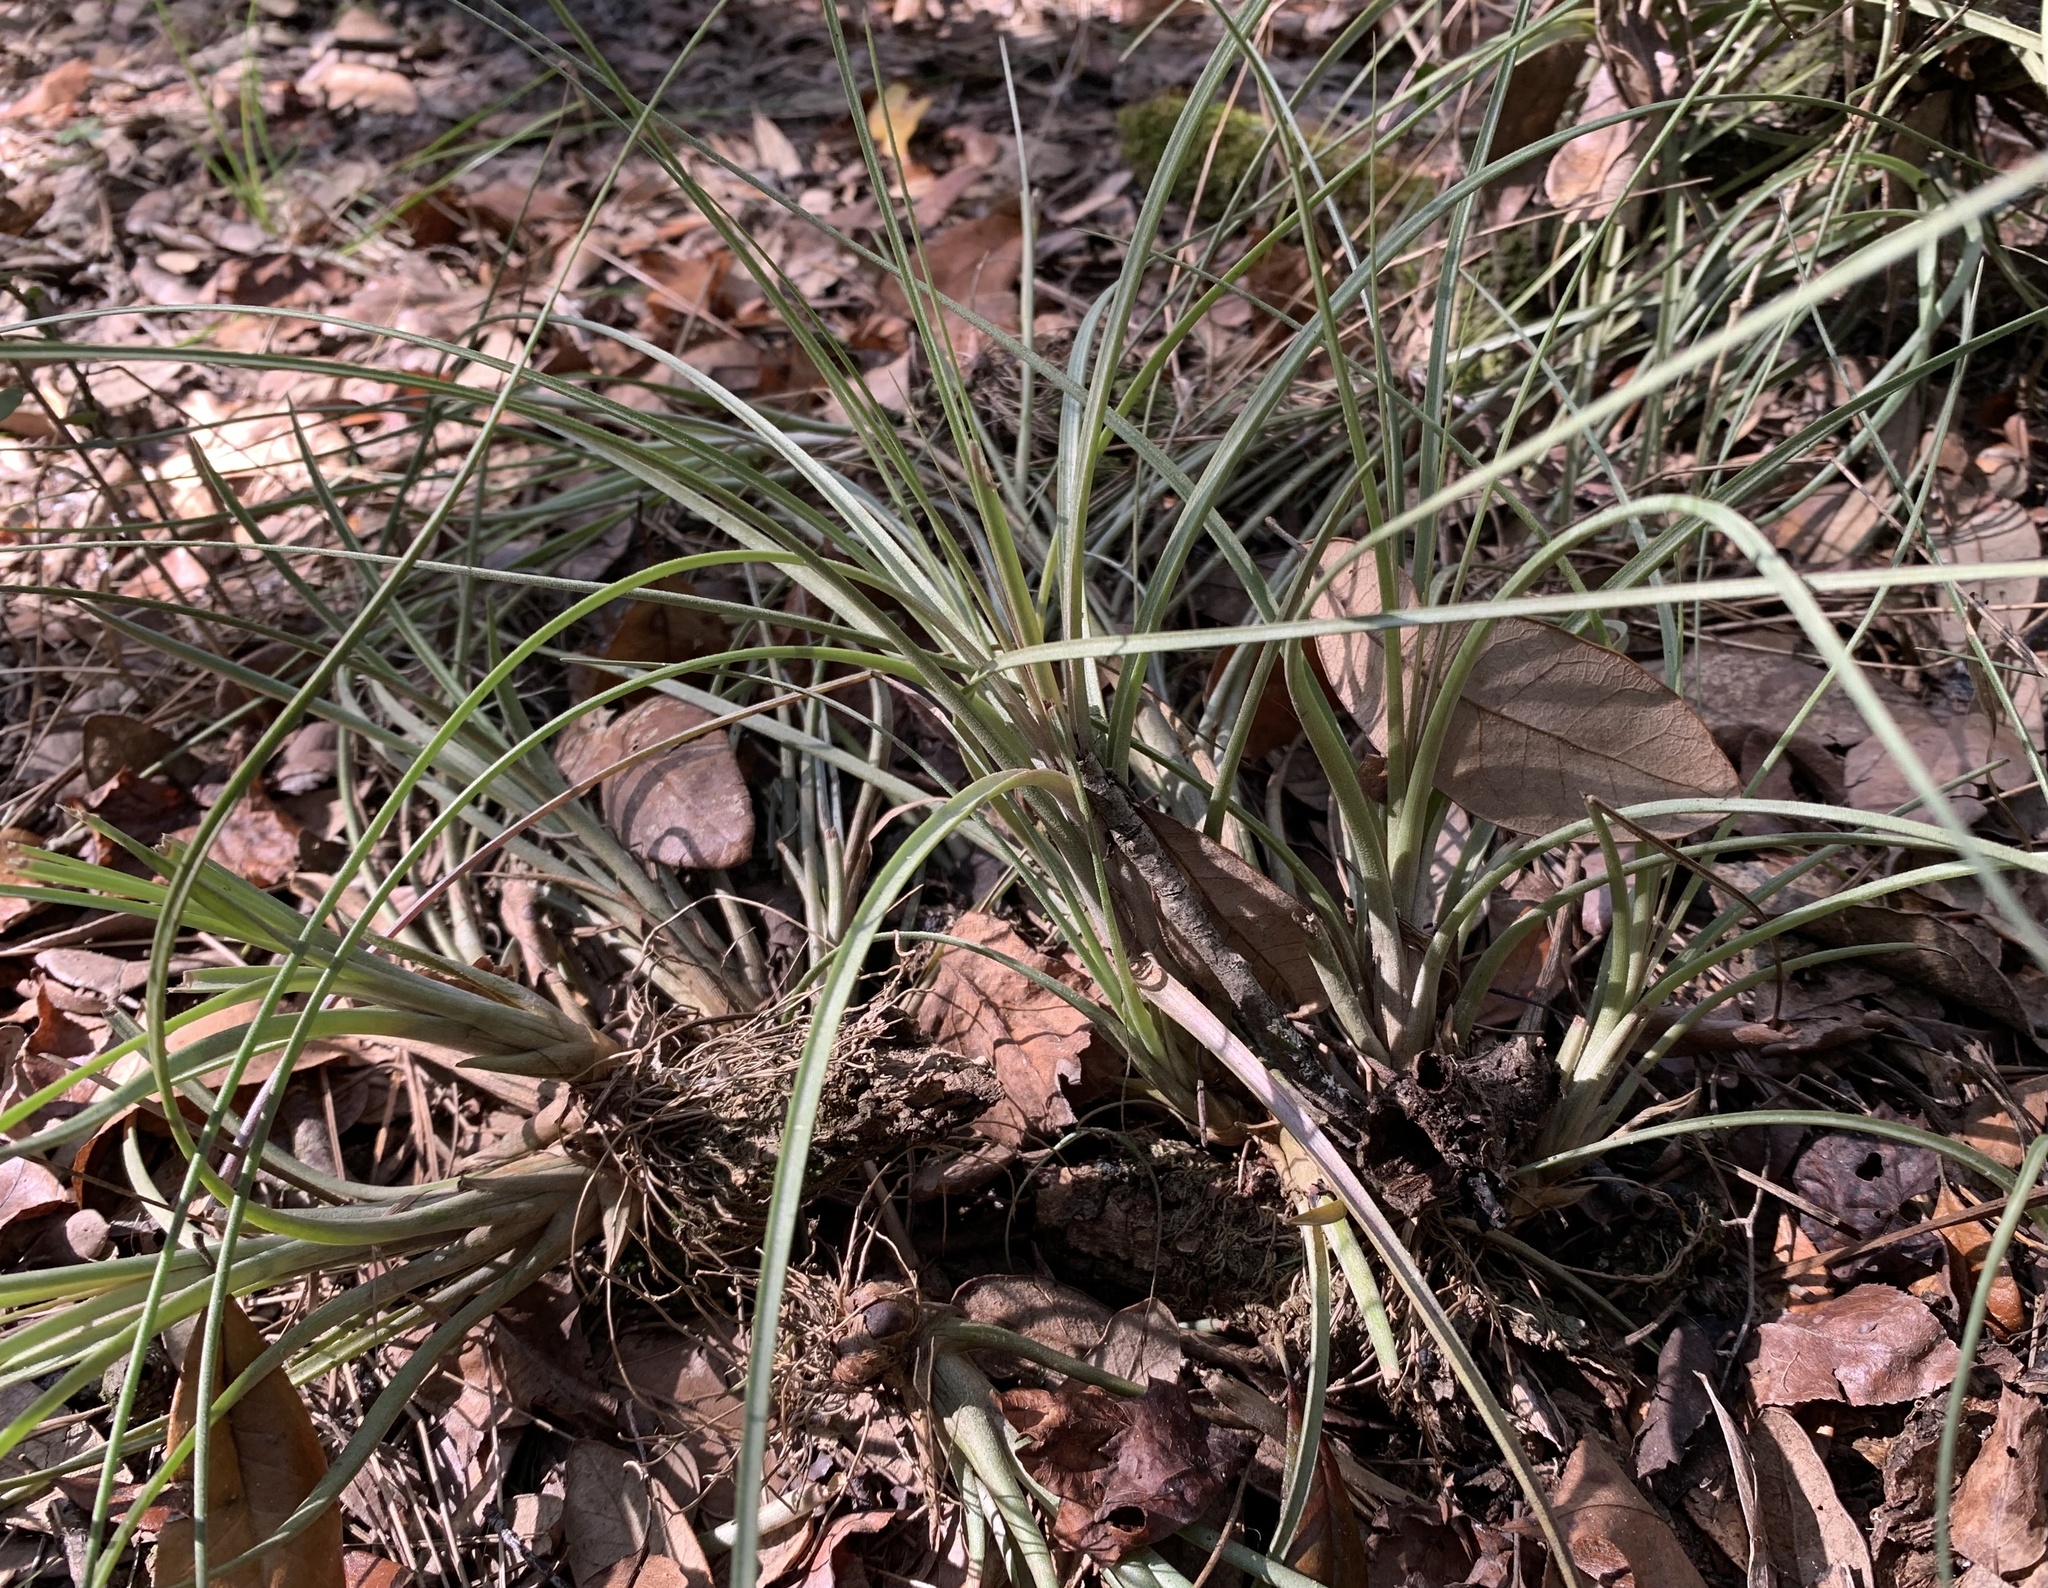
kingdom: Plantae
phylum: Tracheophyta
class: Liliopsida
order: Poales
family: Bromeliaceae
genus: Tillandsia
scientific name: Tillandsia simulata
